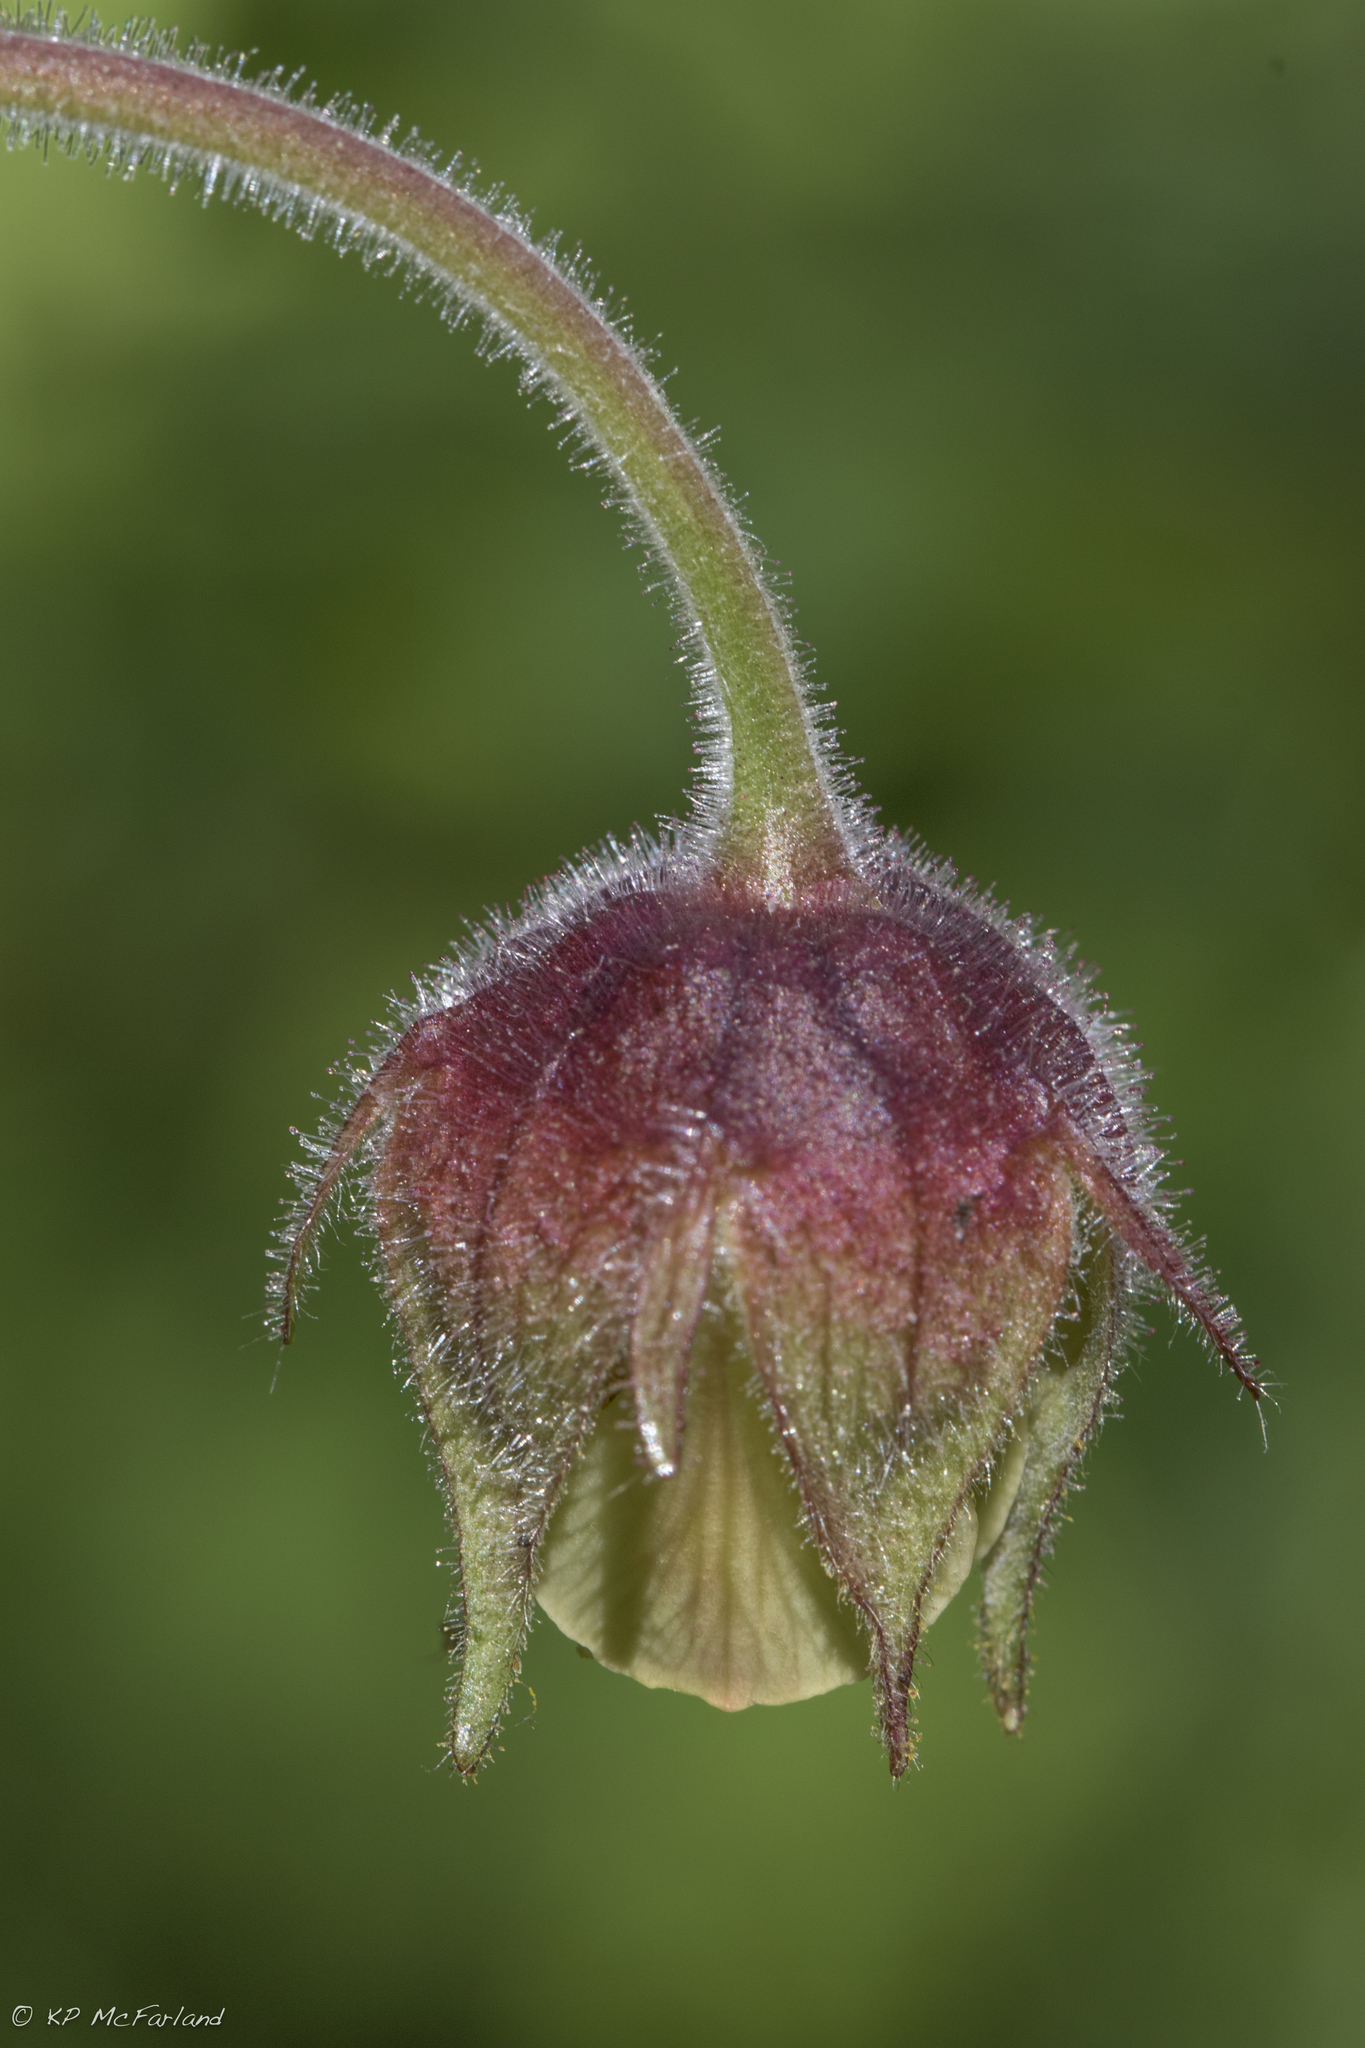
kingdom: Plantae
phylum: Tracheophyta
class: Magnoliopsida
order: Rosales
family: Rosaceae
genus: Geum
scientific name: Geum rivale
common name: Water avens
